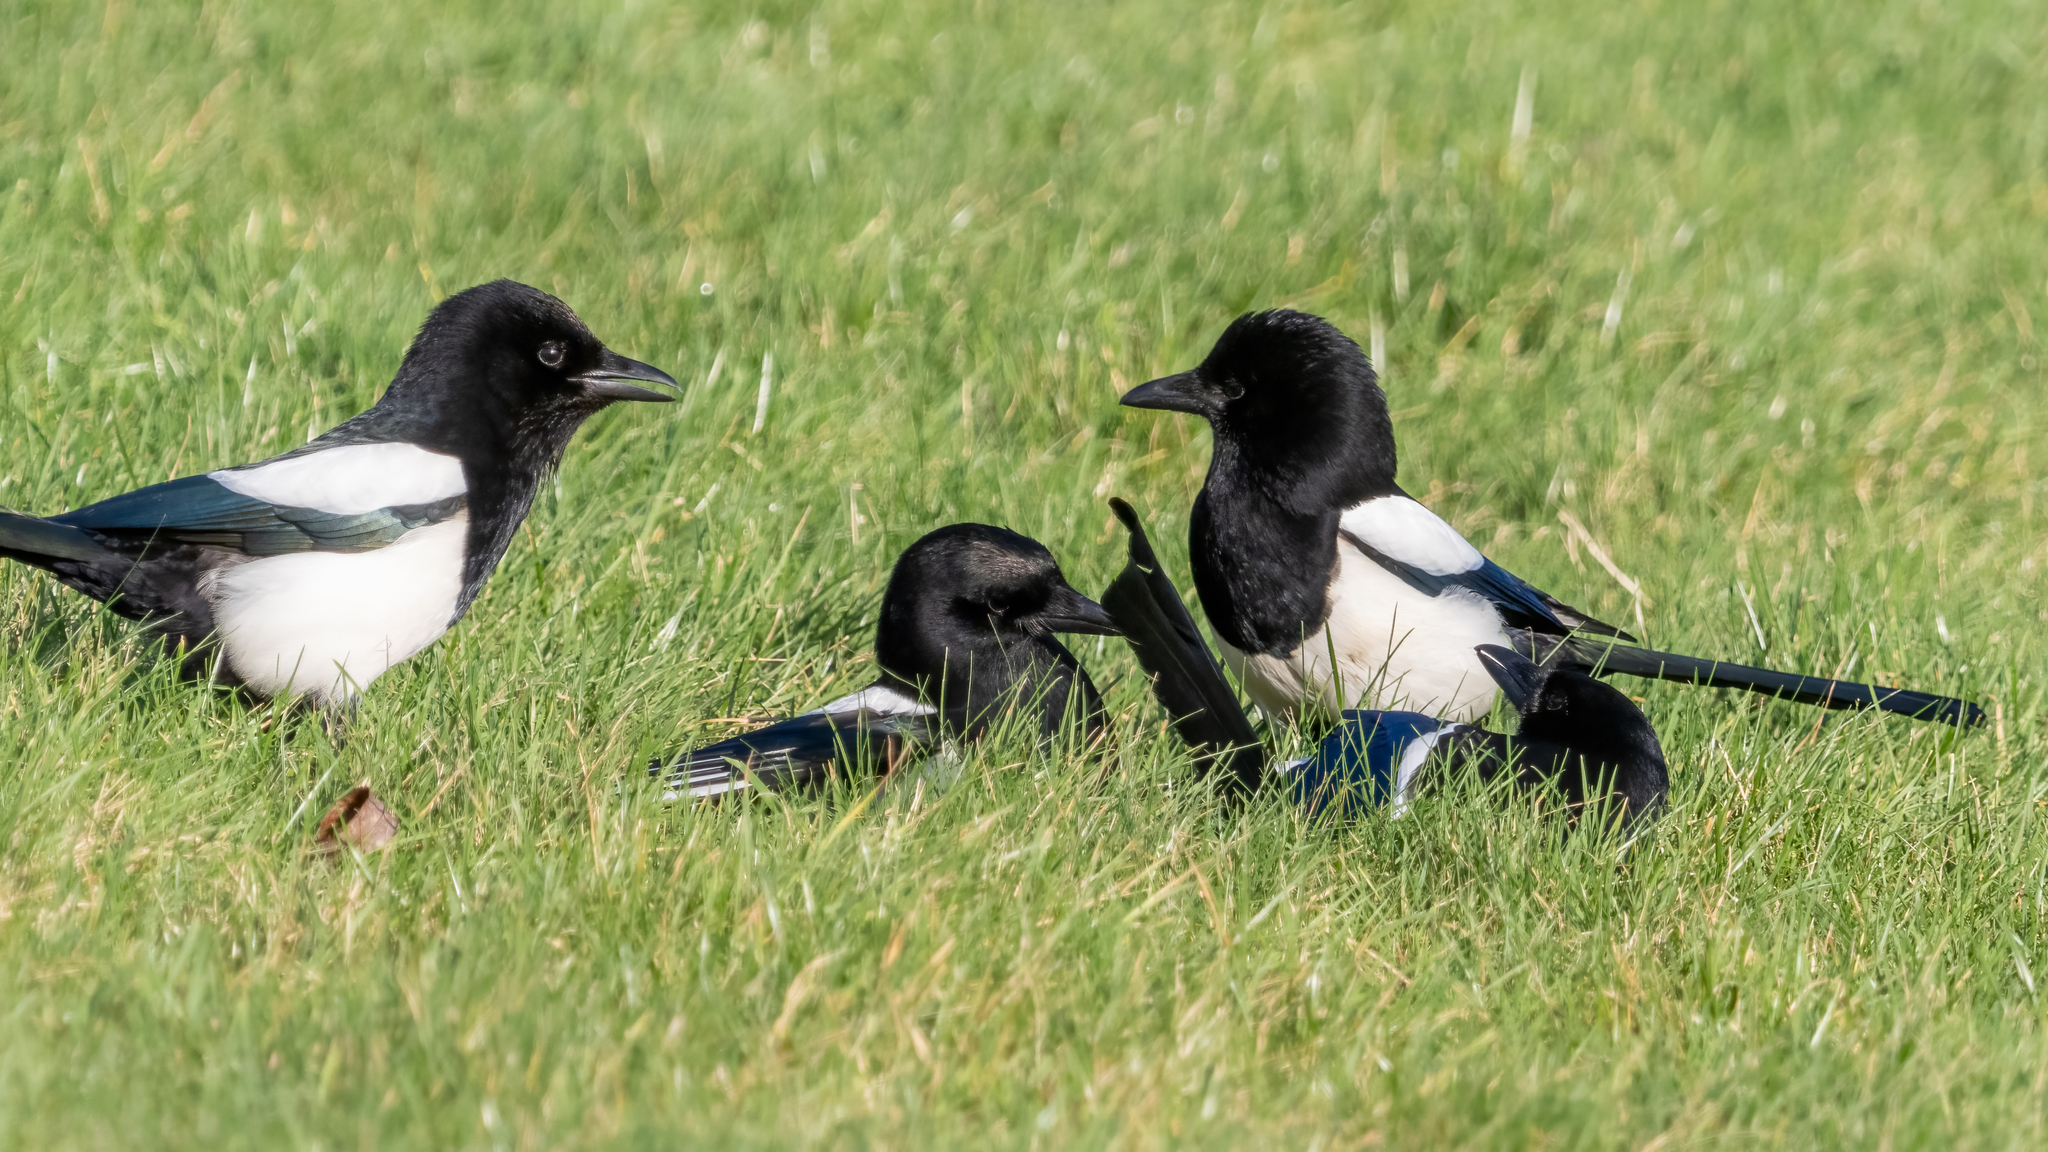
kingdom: Animalia
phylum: Chordata
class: Aves
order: Passeriformes
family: Corvidae
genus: Pica
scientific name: Pica pica
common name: Eurasian magpie
